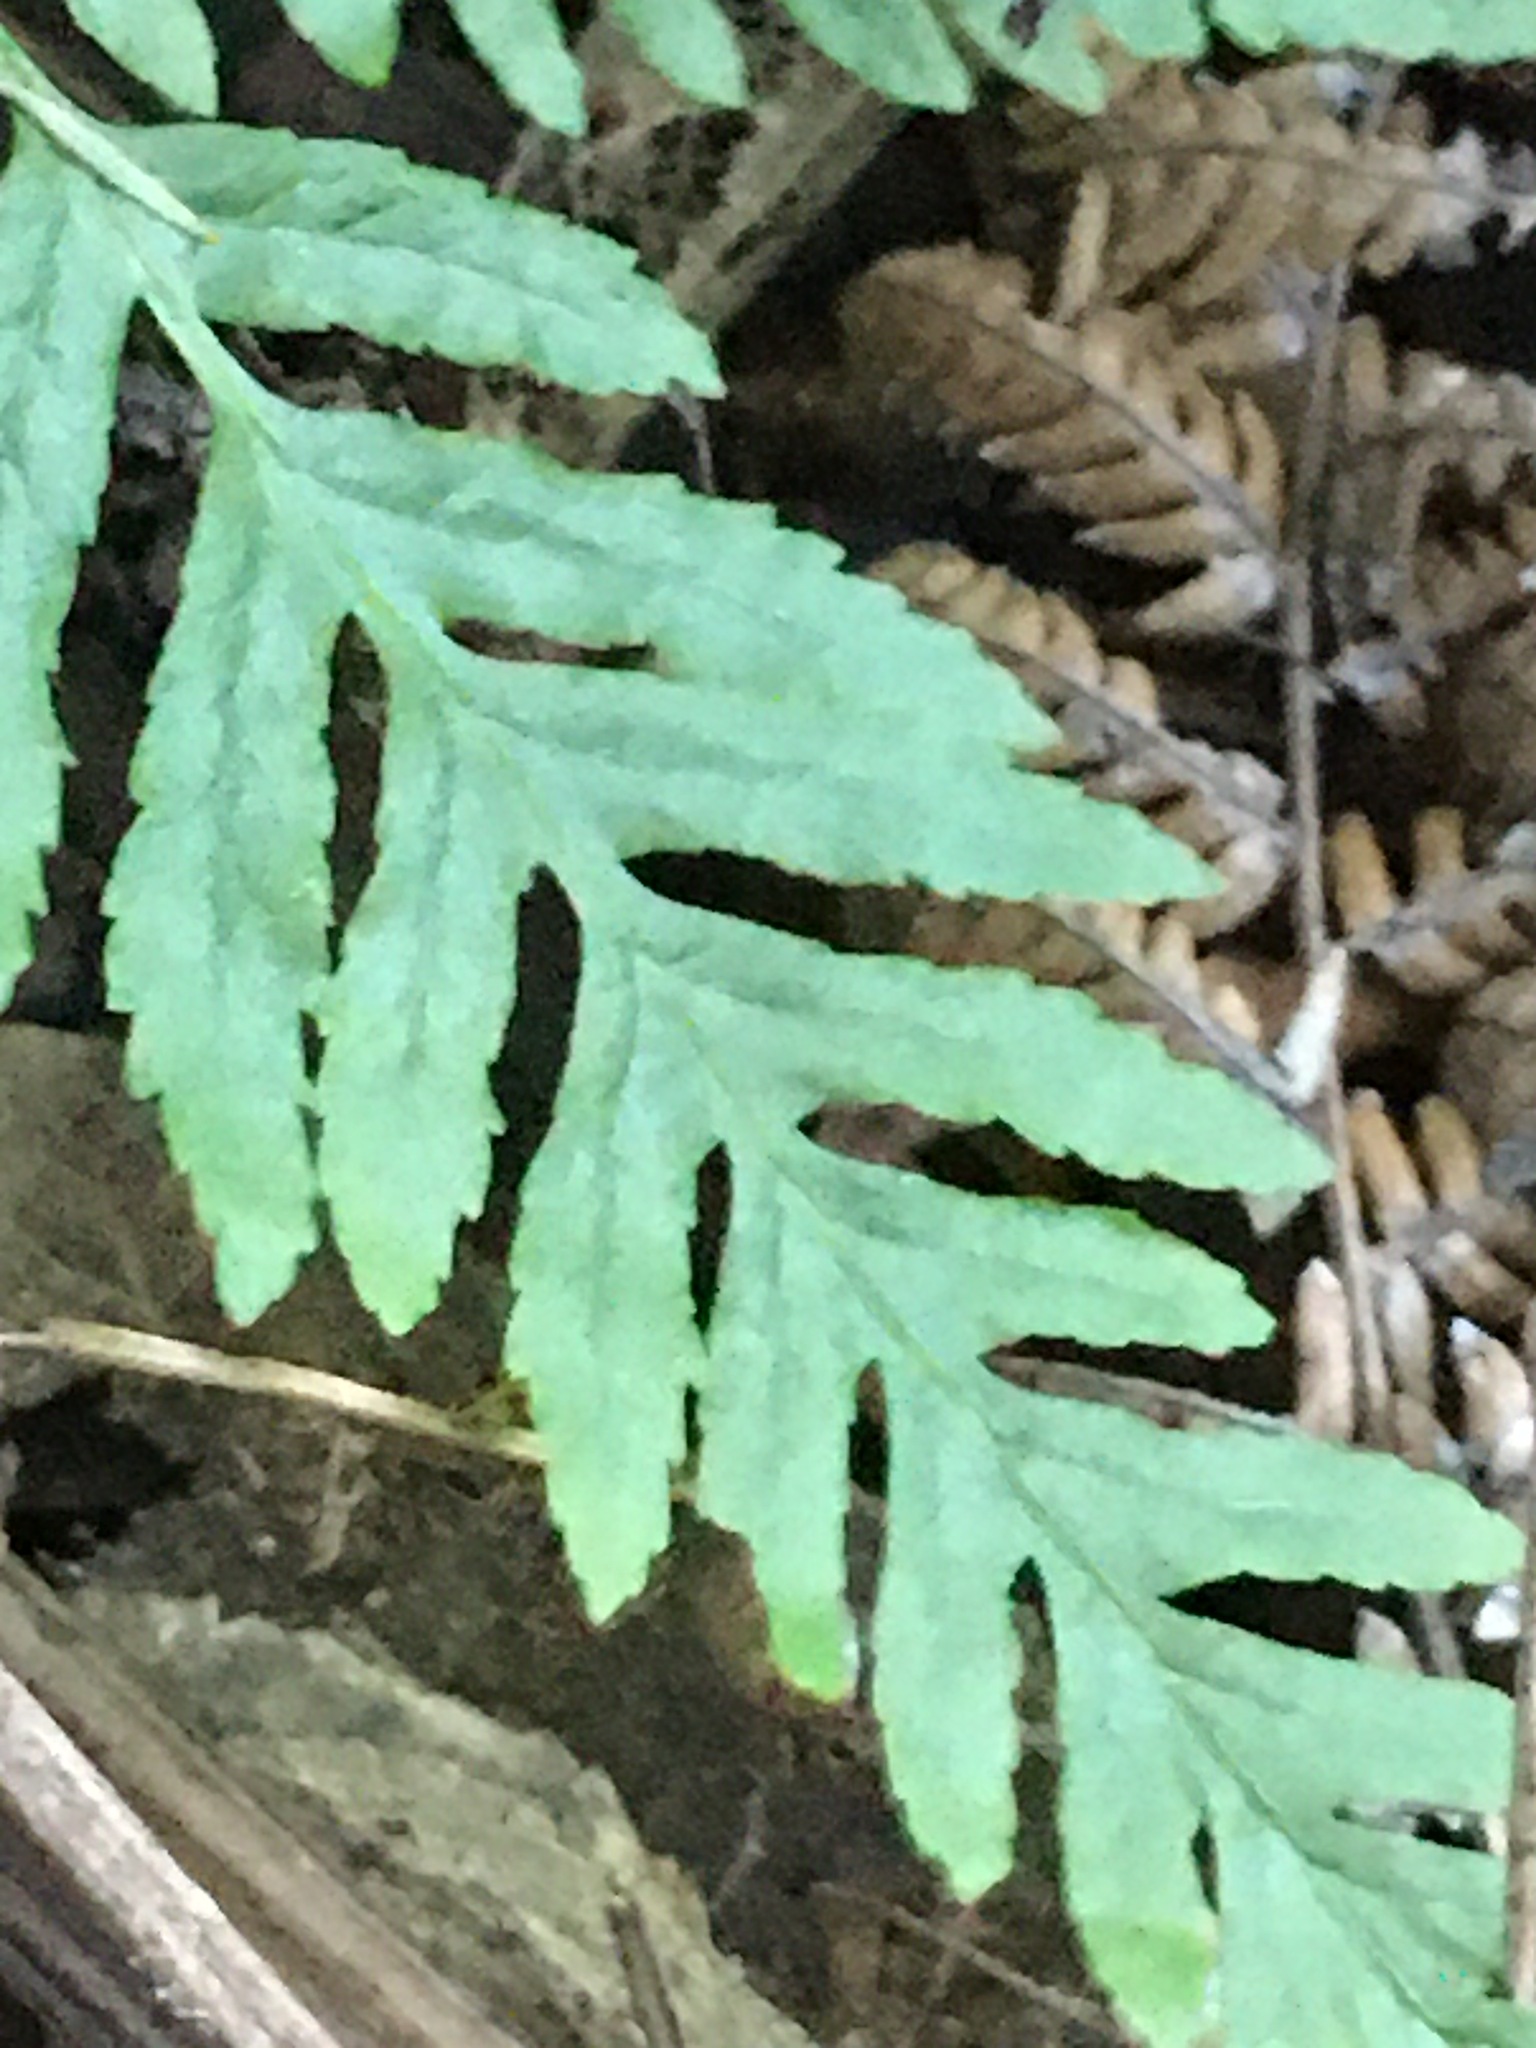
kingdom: Plantae
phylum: Tracheophyta
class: Polypodiopsida
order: Polypodiales
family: Pteridaceae
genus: Pteris
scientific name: Pteris tremula
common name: Australian brake
